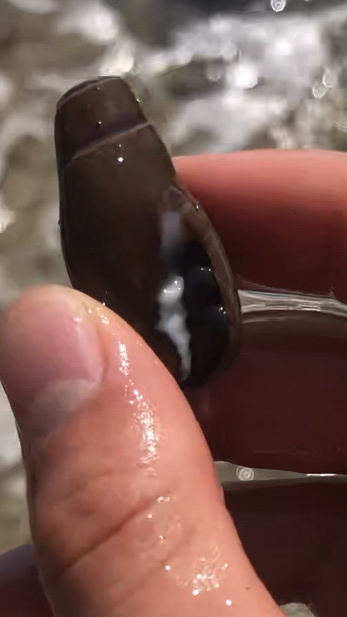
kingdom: Animalia
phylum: Mollusca
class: Gastropoda
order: Neogastropoda
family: Mitridae
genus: Atrimitra
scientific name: Atrimitra idae
